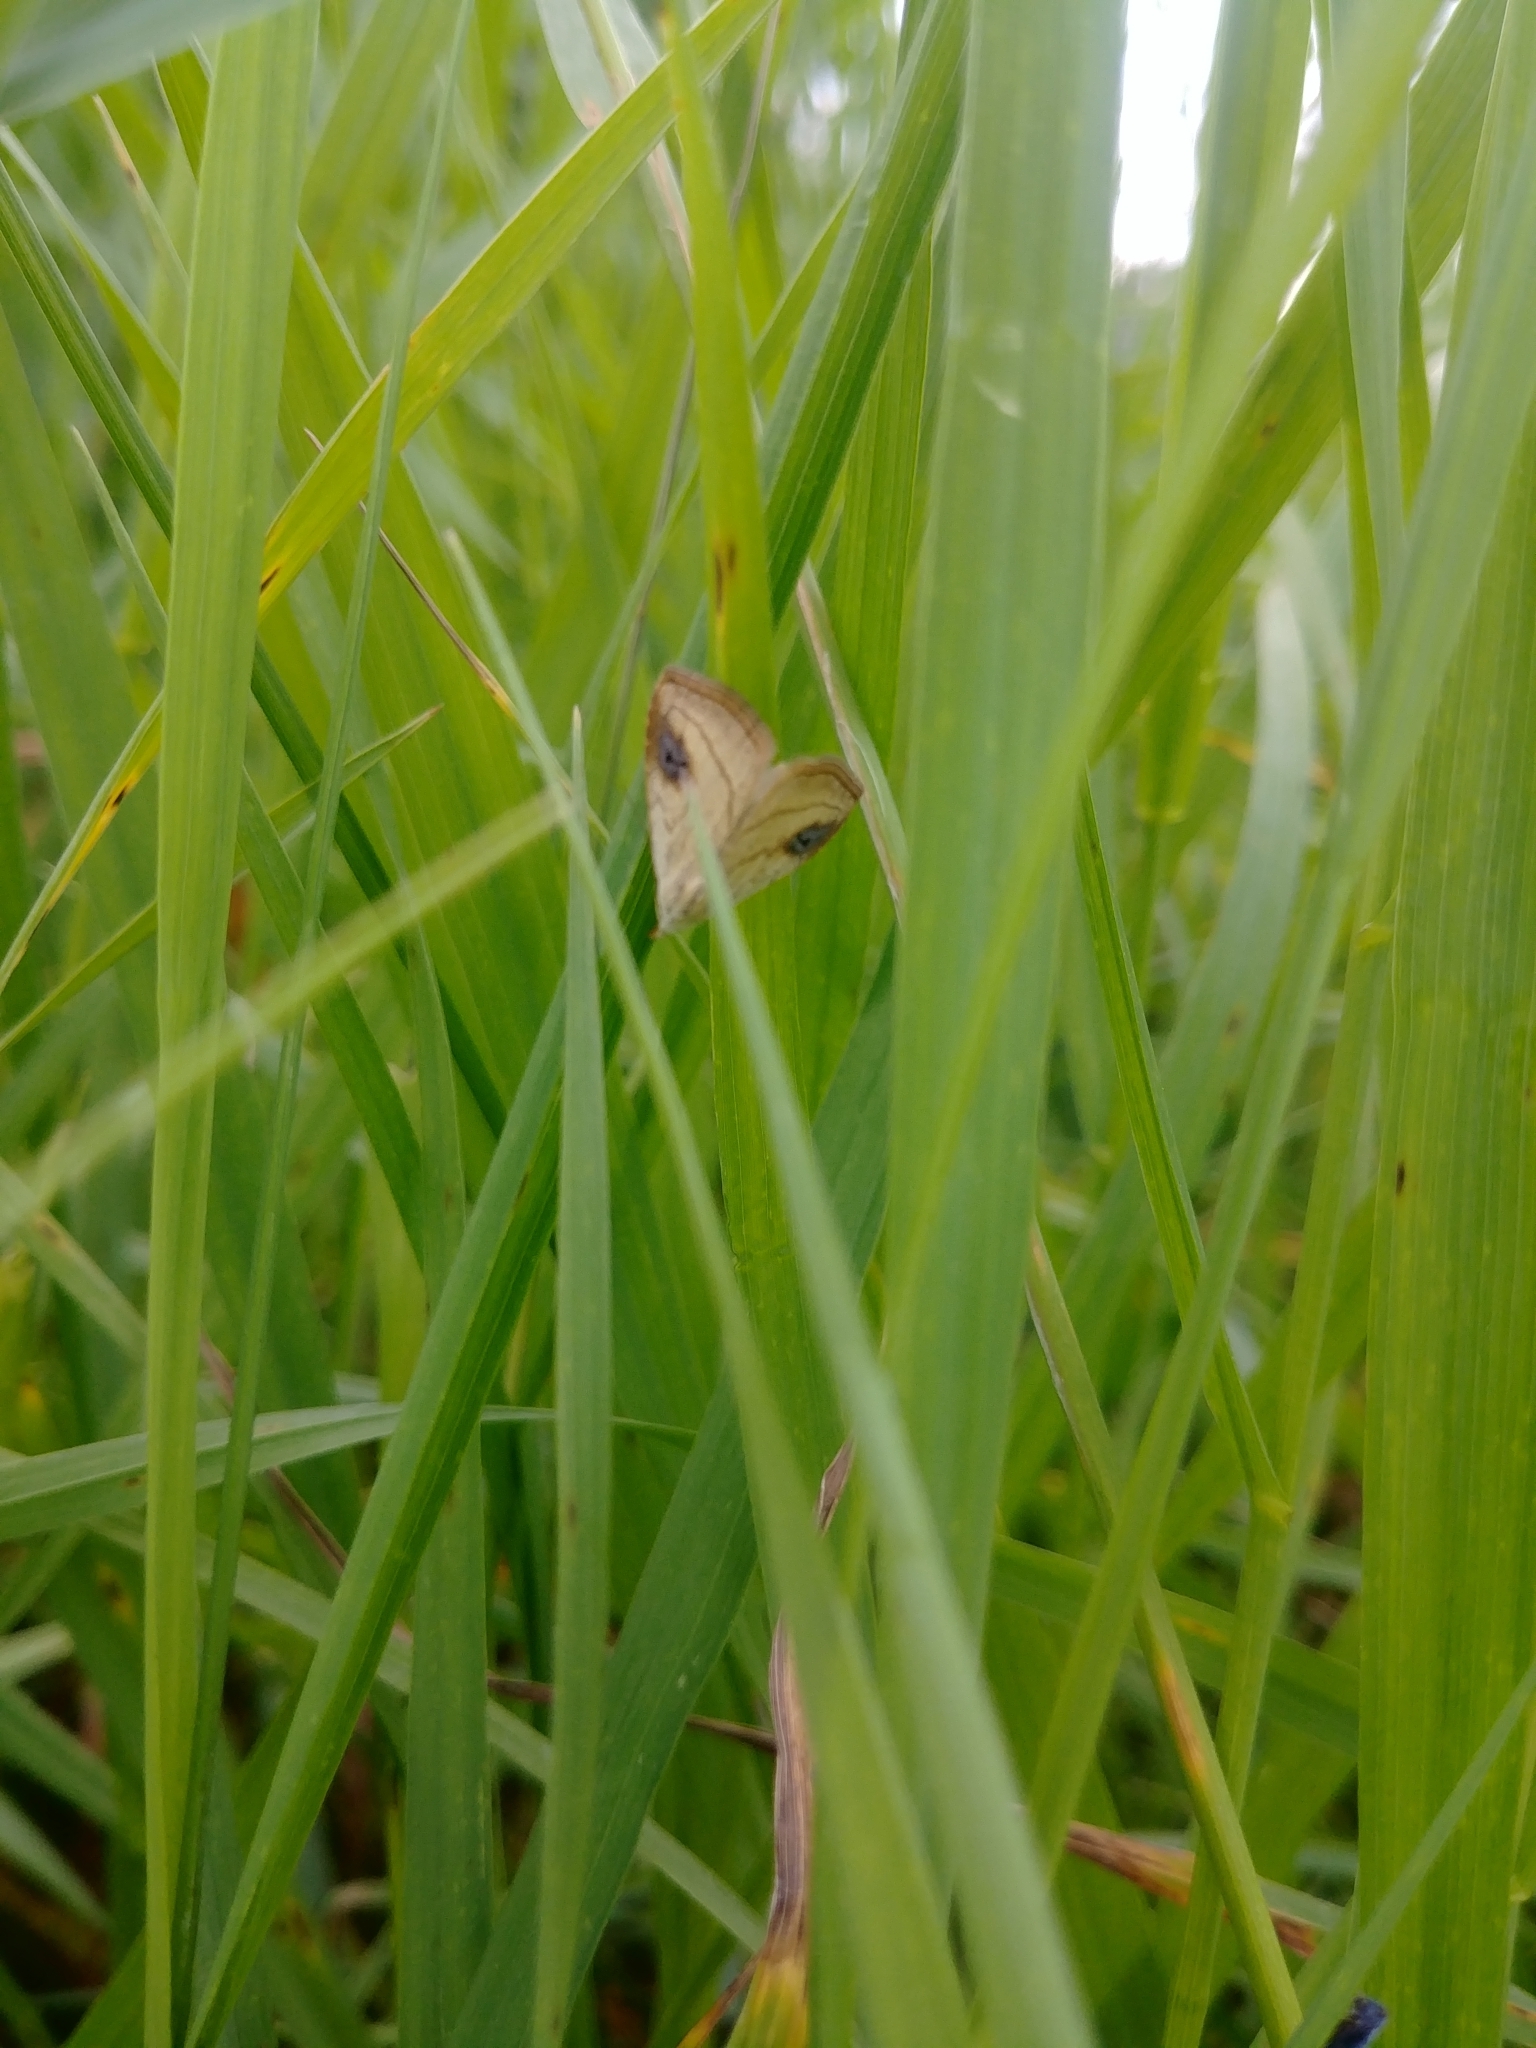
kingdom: Animalia
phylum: Arthropoda
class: Insecta
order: Lepidoptera
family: Erebidae
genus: Rivula
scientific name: Rivula propinqualis
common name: Spotted grass moth
